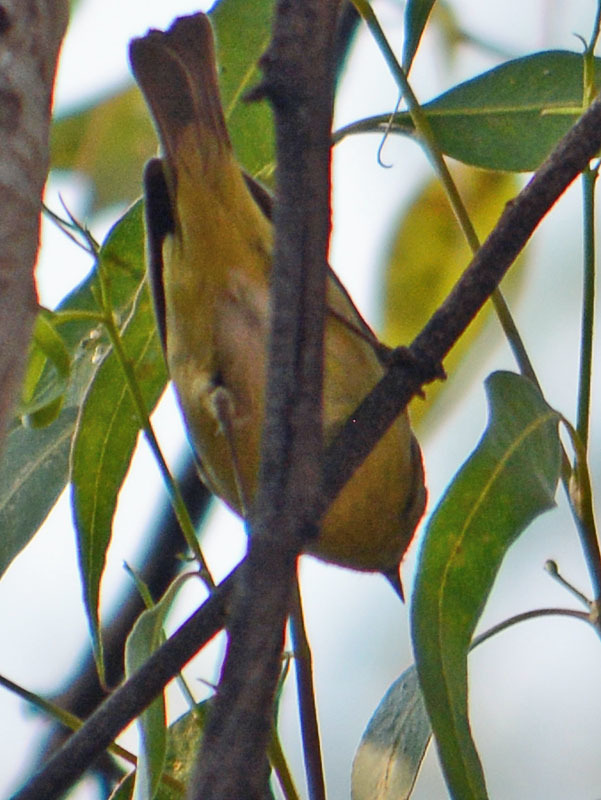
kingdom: Animalia
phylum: Chordata
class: Aves
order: Passeriformes
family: Parulidae
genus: Leiothlypis
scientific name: Leiothlypis ruficapilla
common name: Nashville warbler
